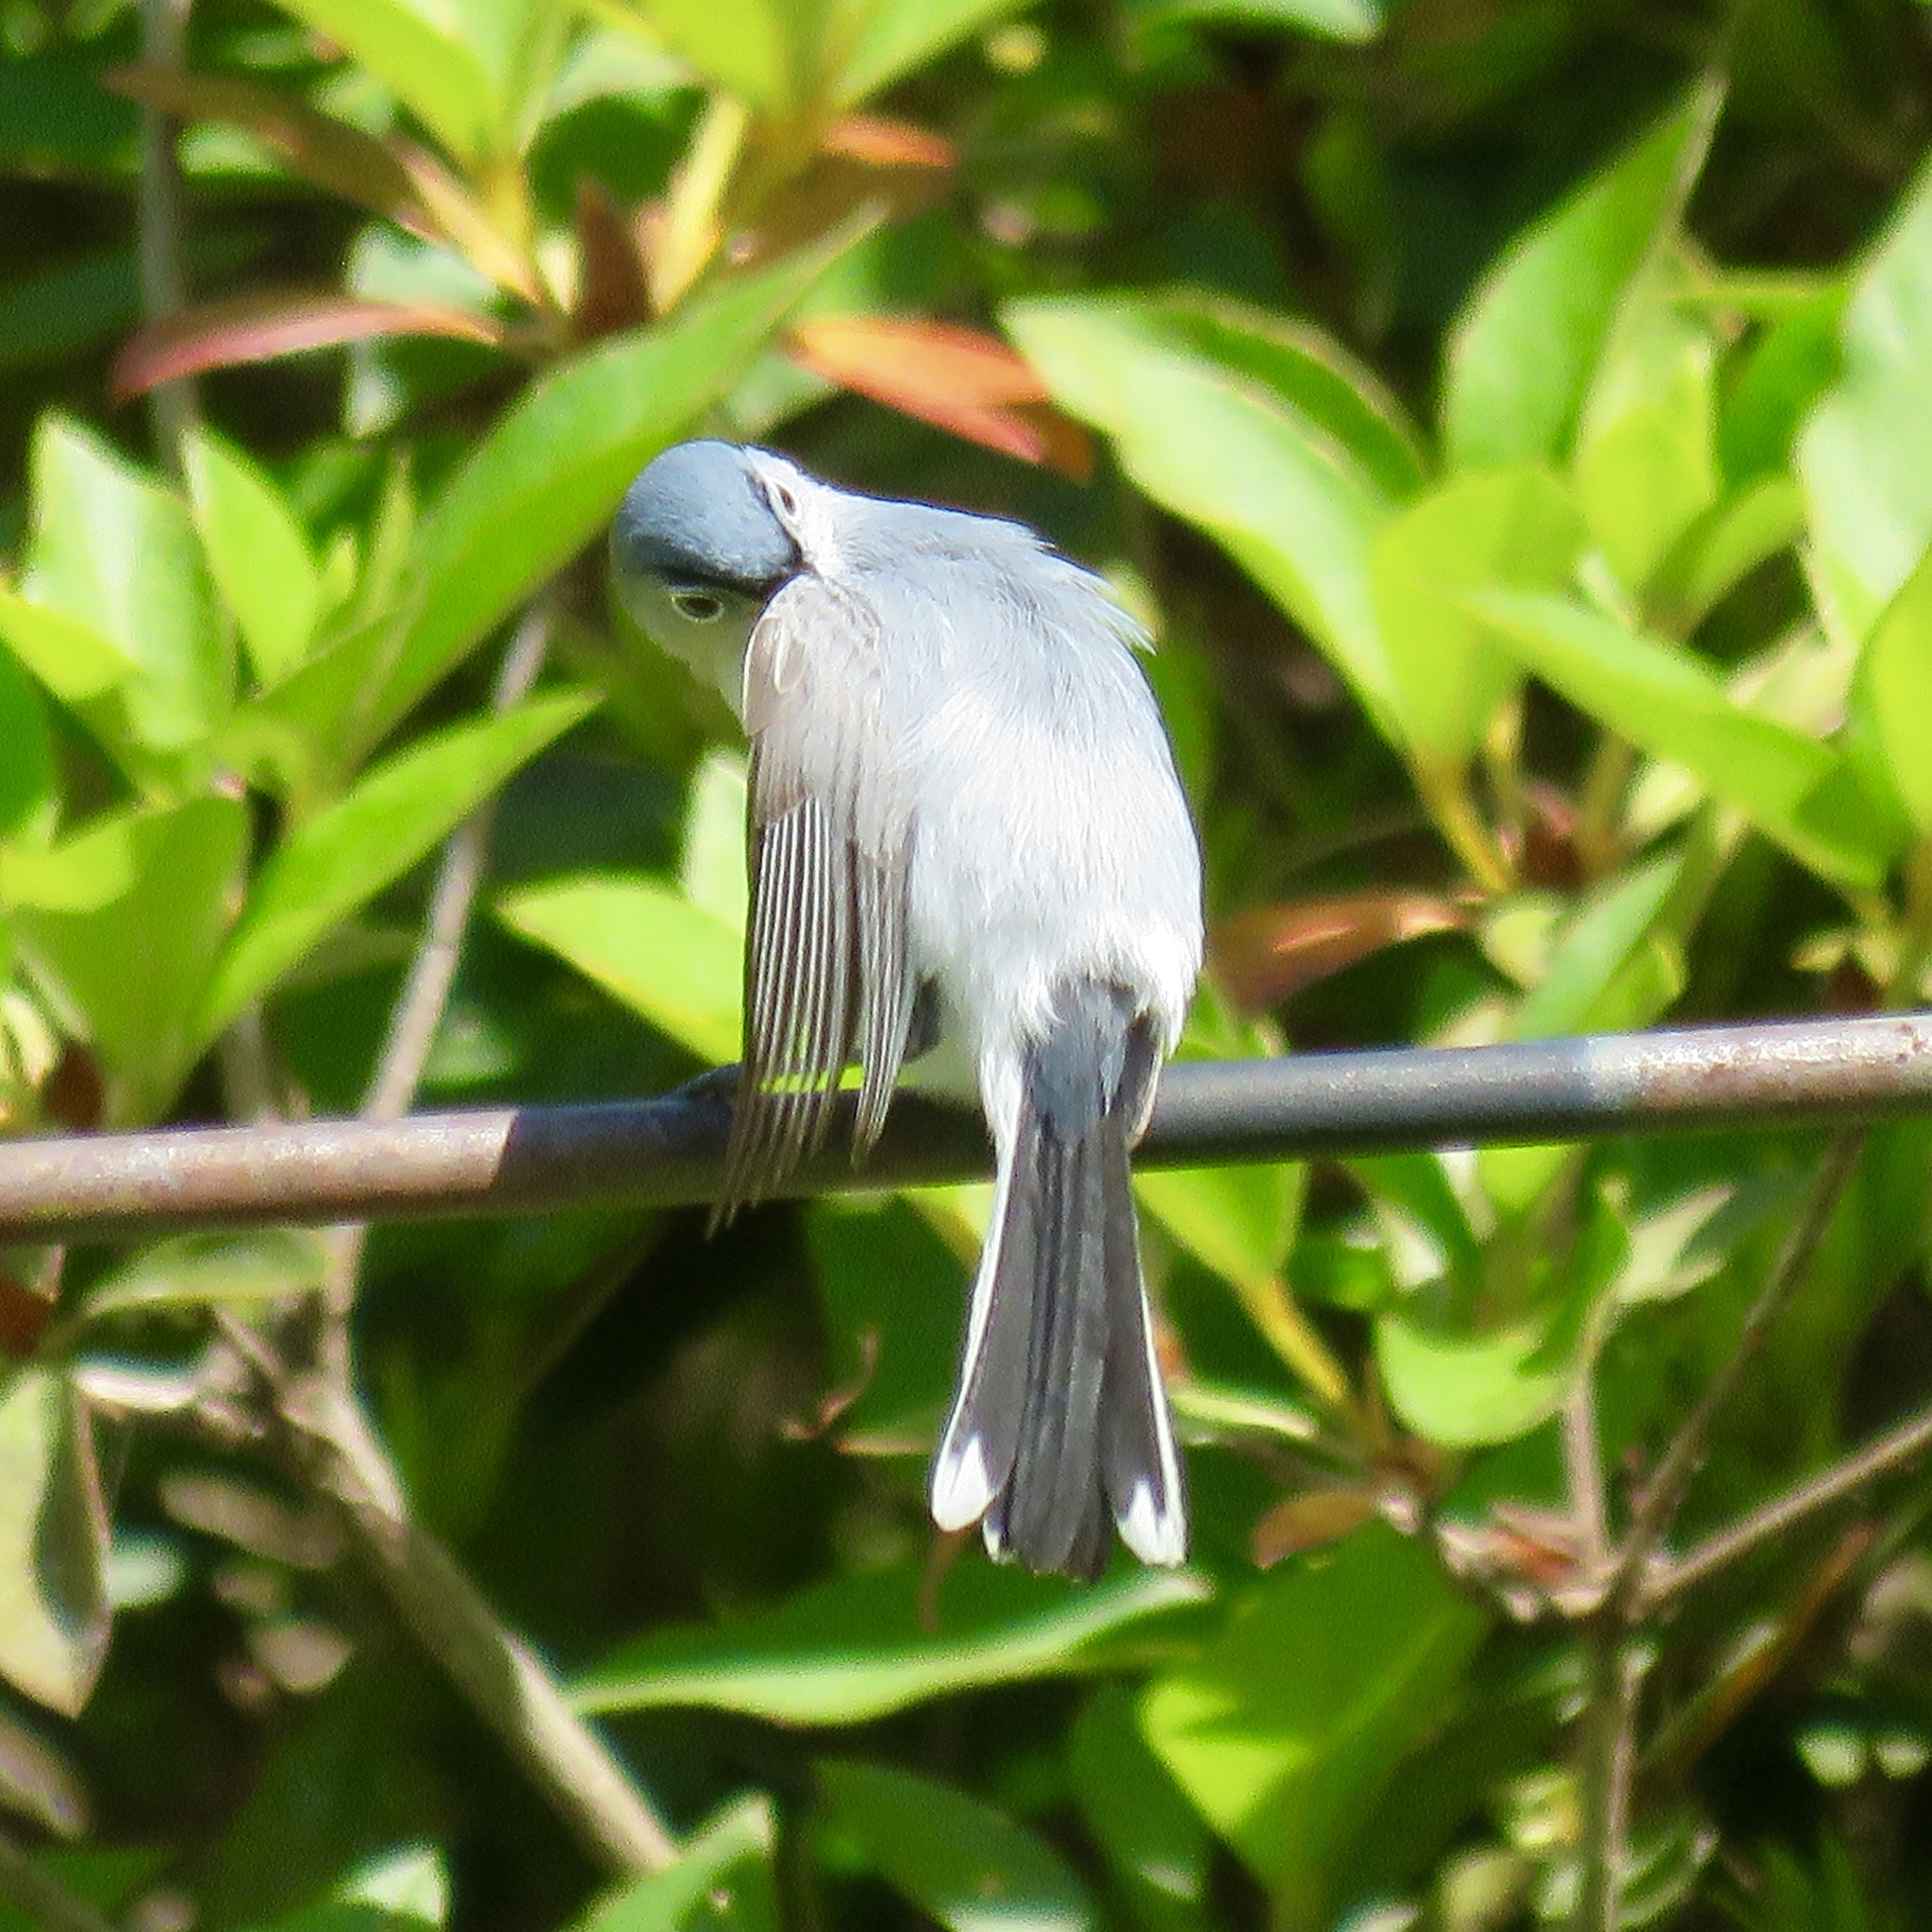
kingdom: Animalia
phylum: Chordata
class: Aves
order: Passeriformes
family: Polioptilidae
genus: Polioptila
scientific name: Polioptila caerulea
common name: Blue-gray gnatcatcher
